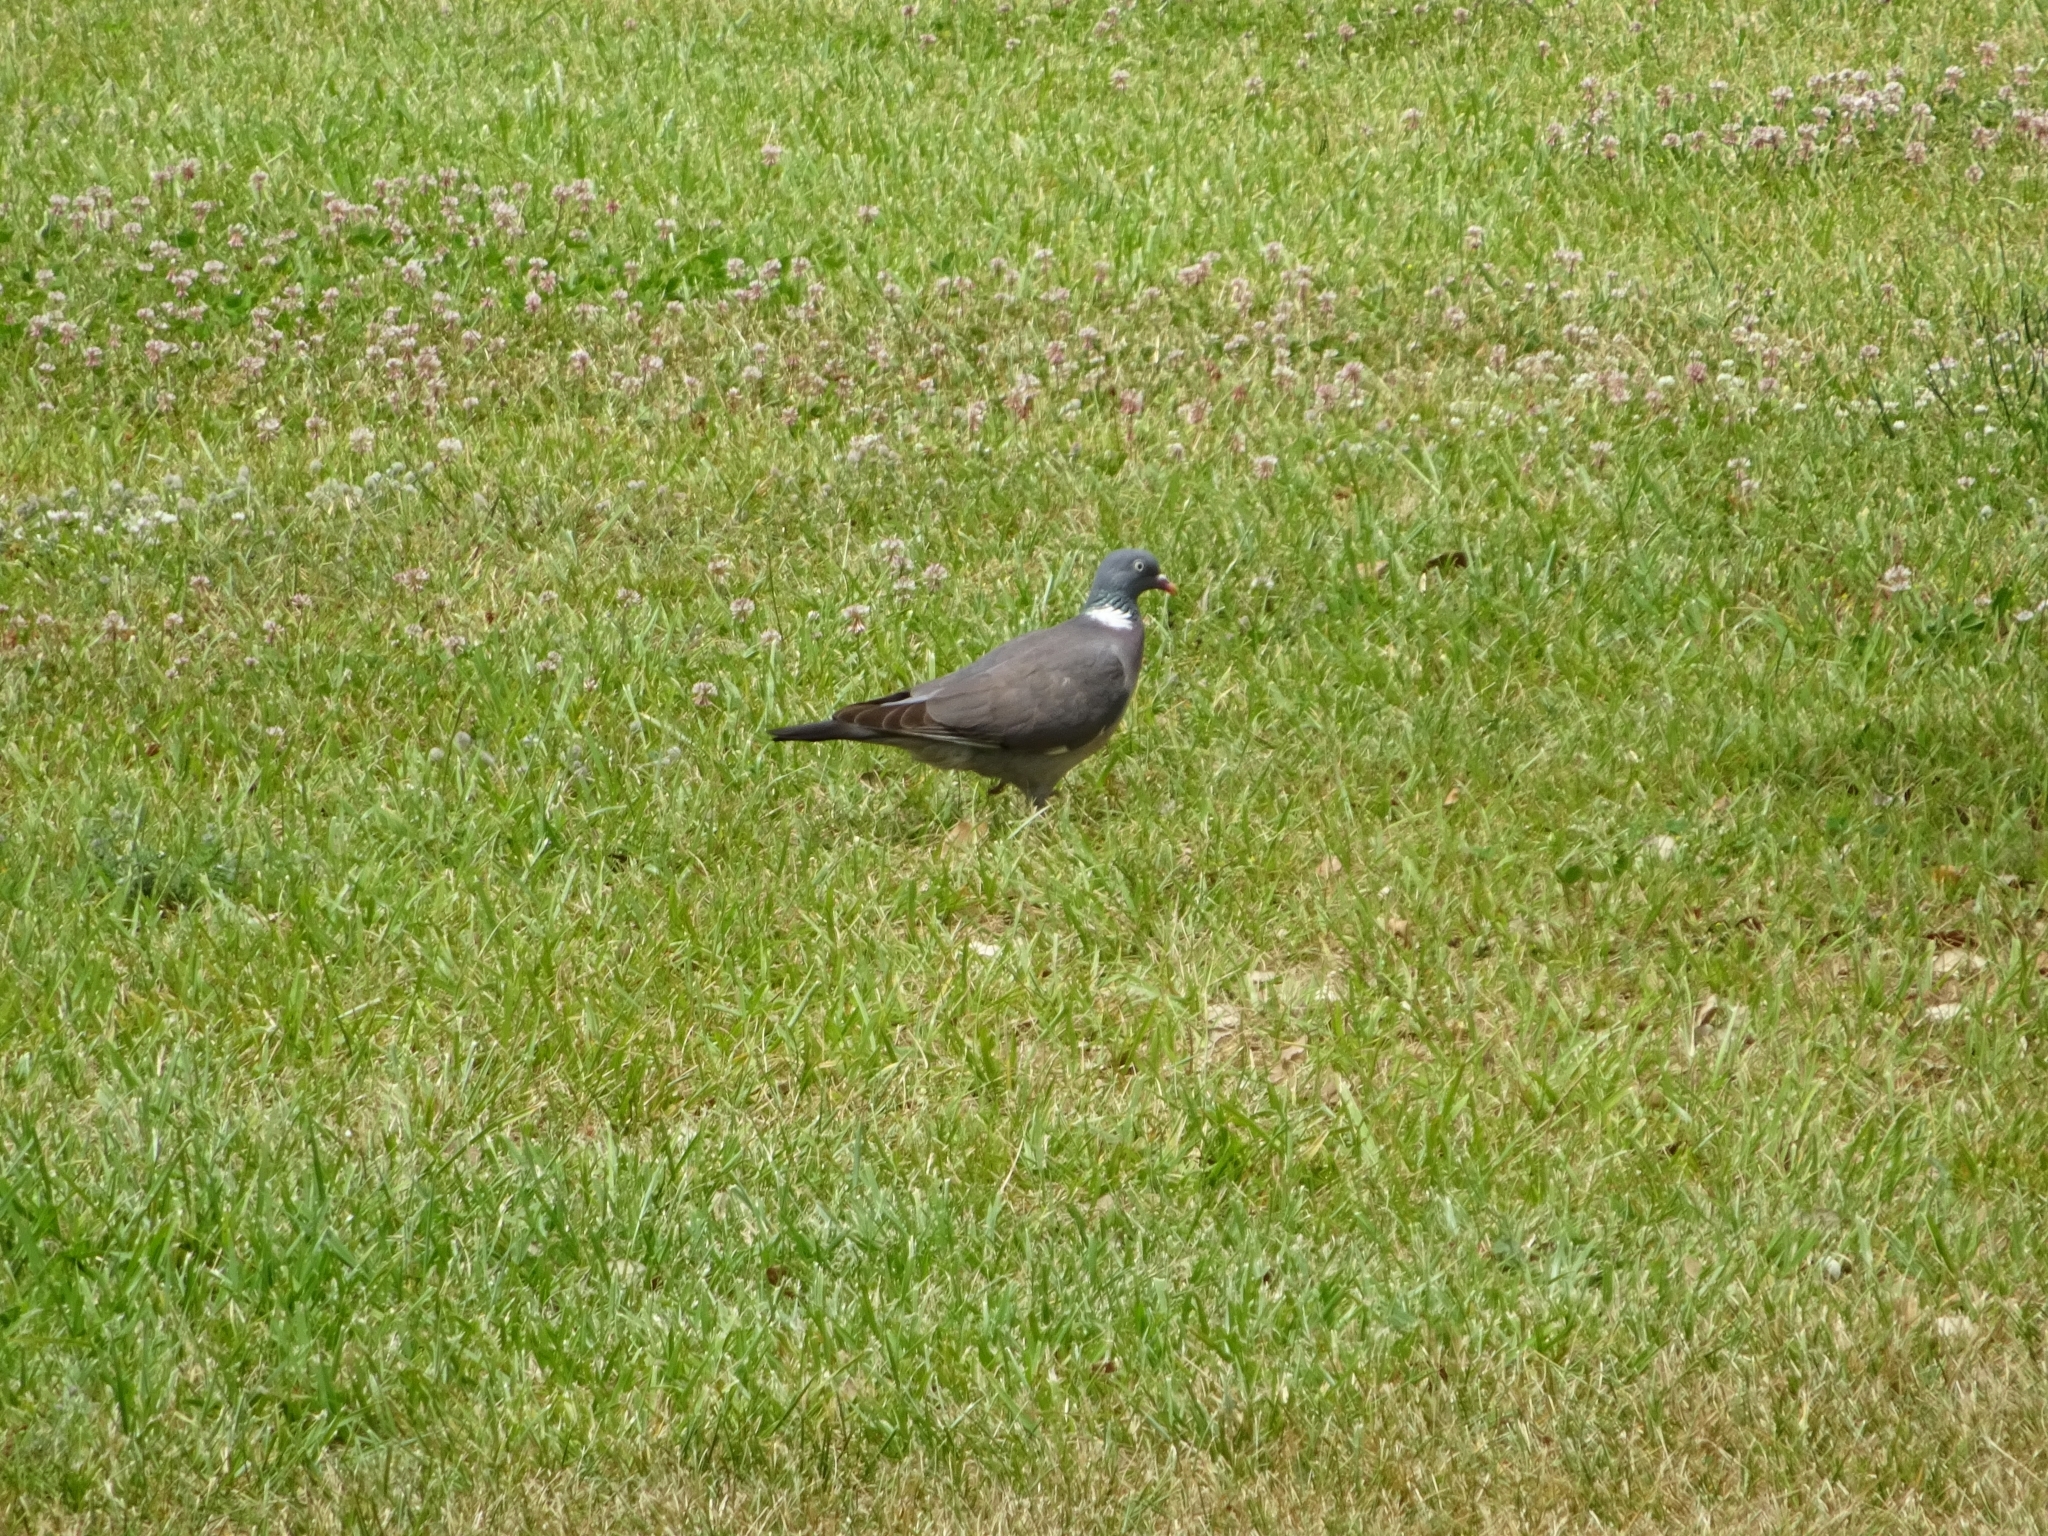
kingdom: Animalia
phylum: Chordata
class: Aves
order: Columbiformes
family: Columbidae
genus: Columba
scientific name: Columba palumbus
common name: Common wood pigeon
